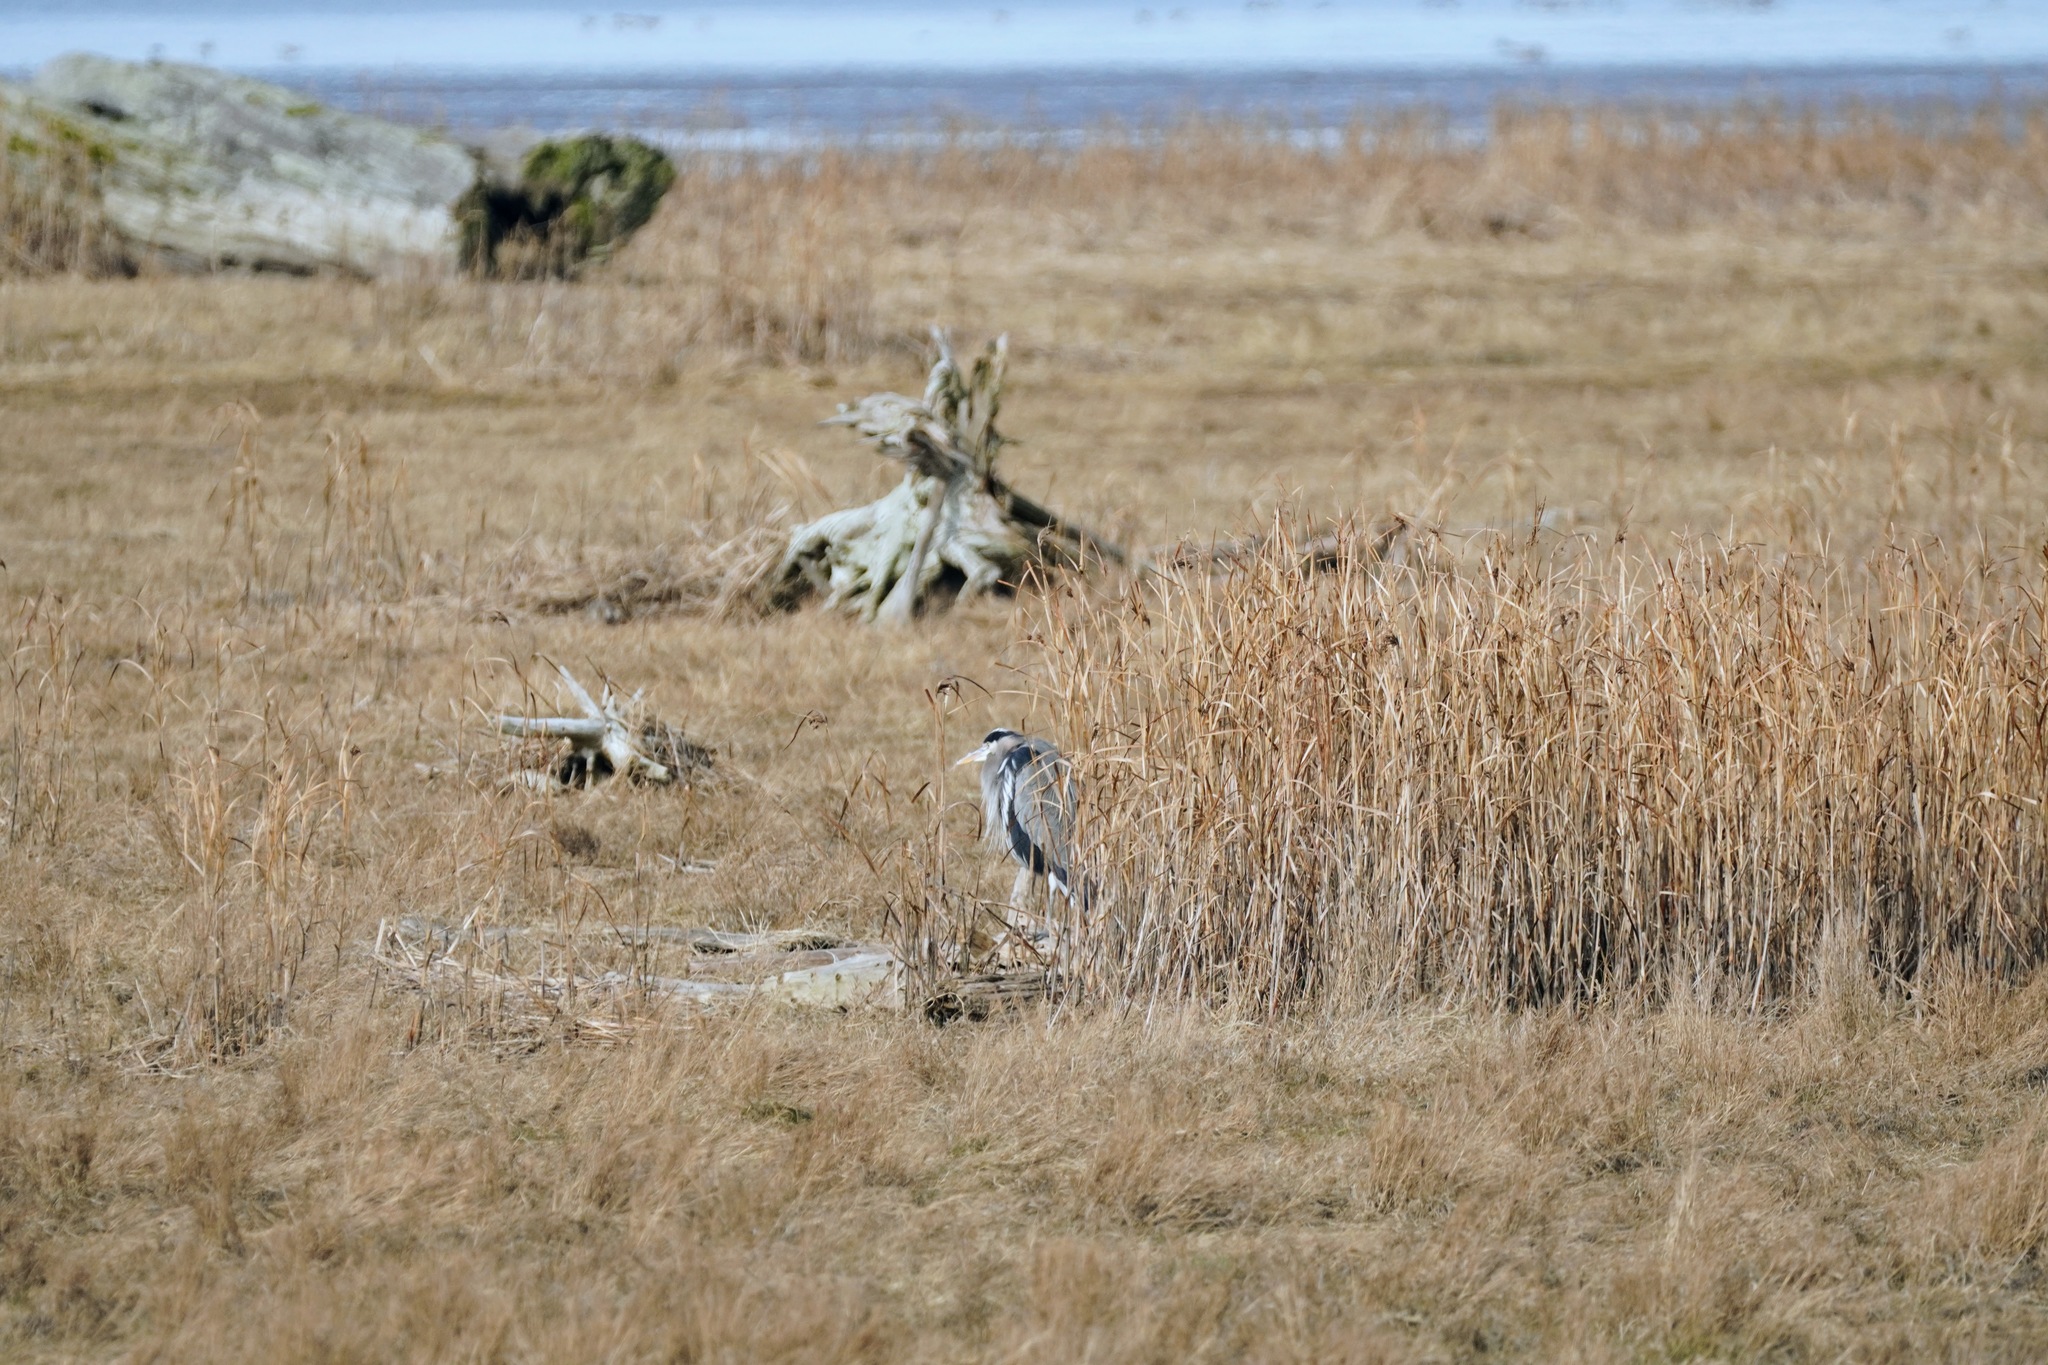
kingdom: Animalia
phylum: Chordata
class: Aves
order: Pelecaniformes
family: Ardeidae
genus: Ardea
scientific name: Ardea herodias
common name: Great blue heron
